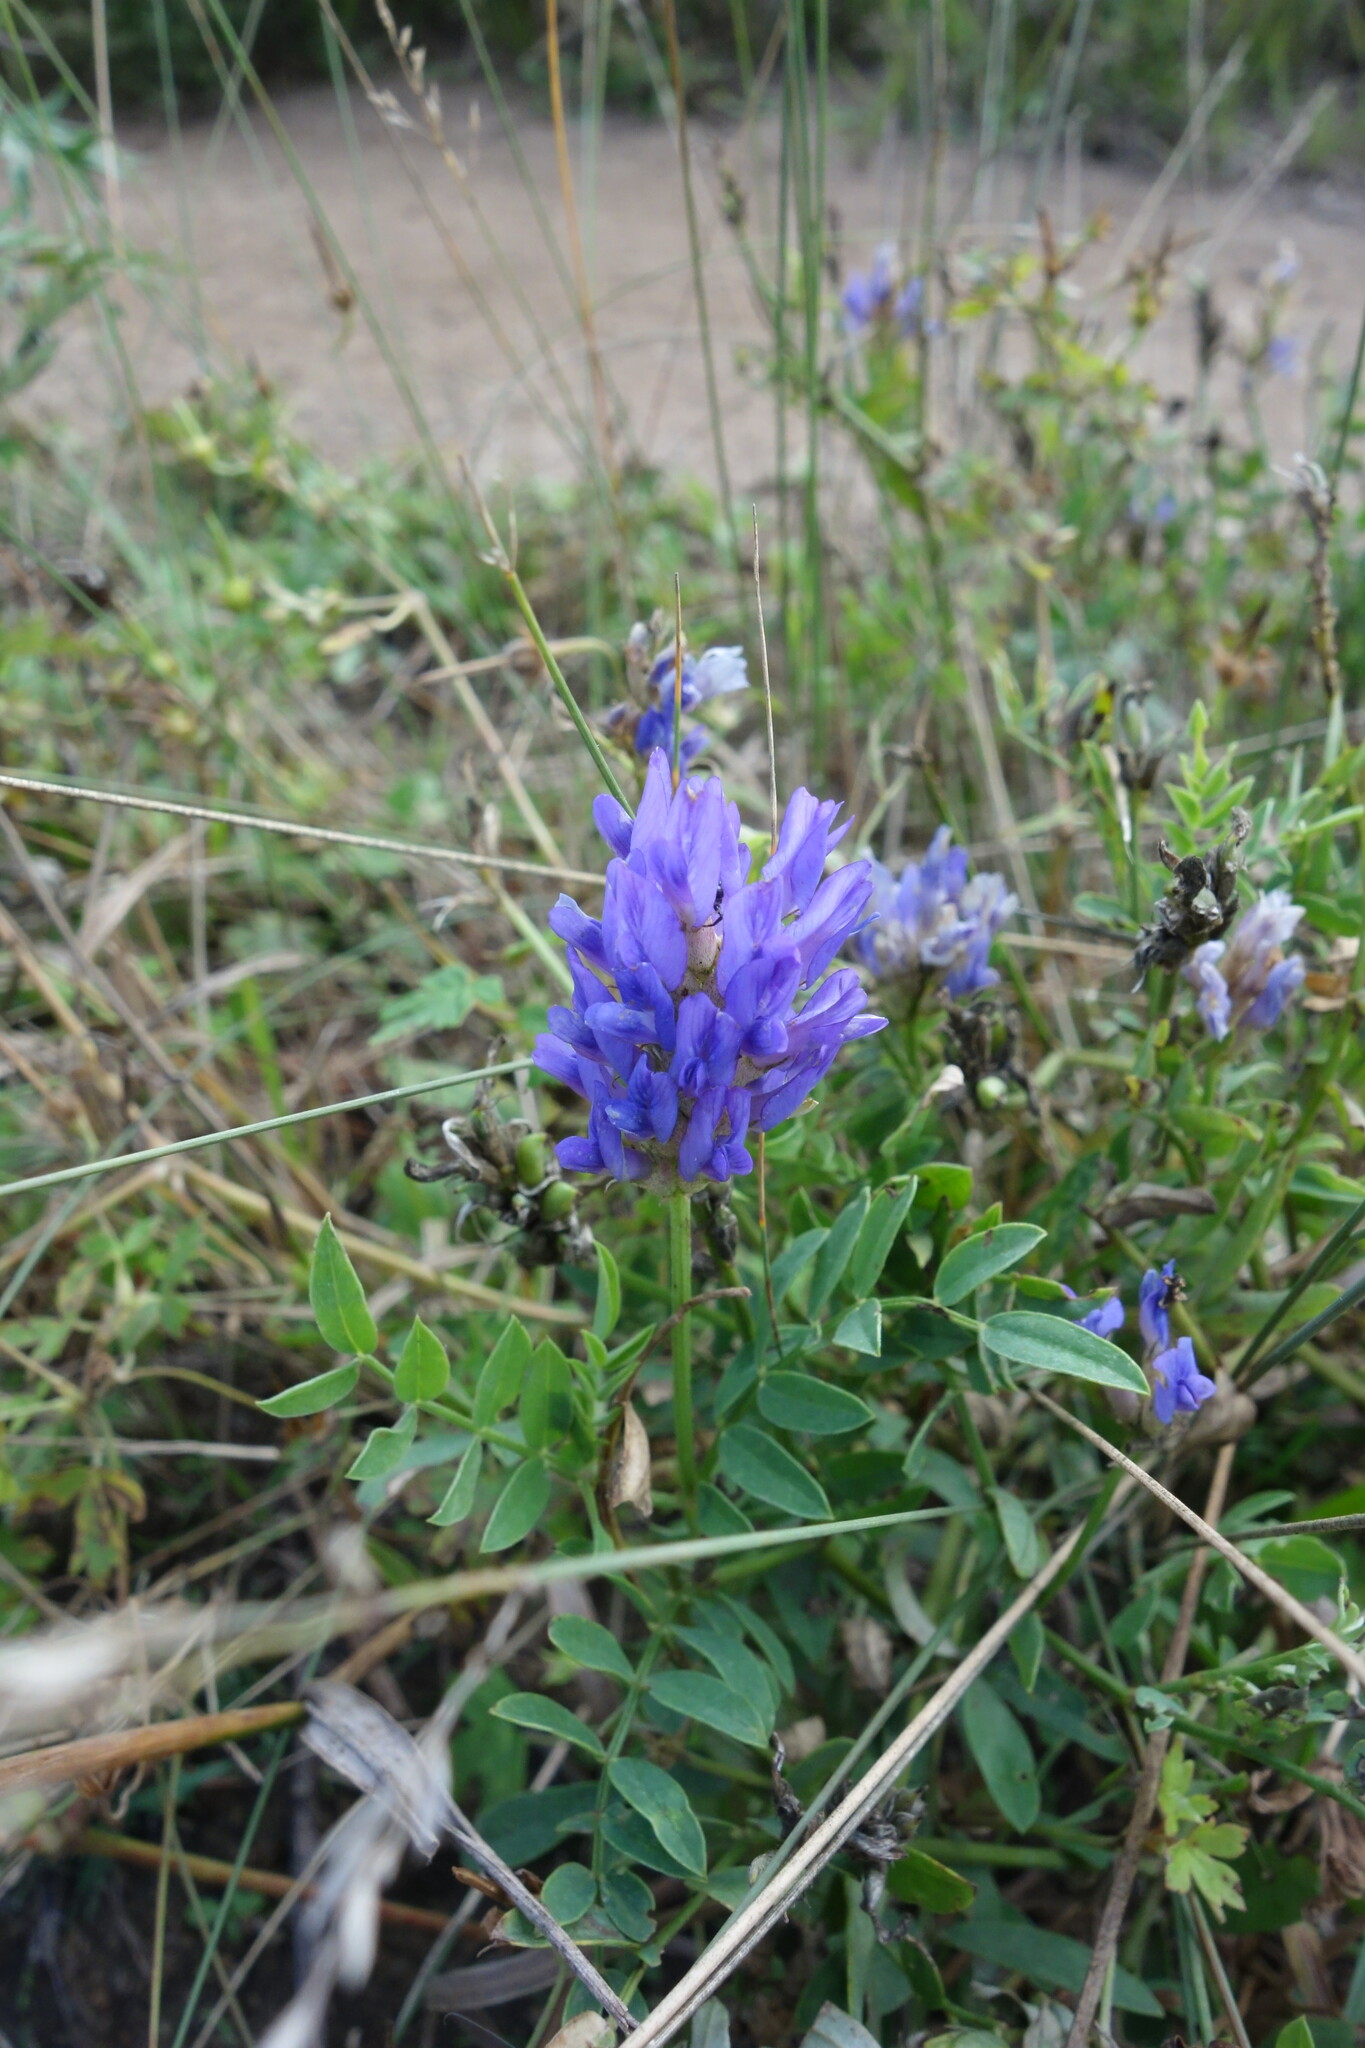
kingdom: Plantae
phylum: Tracheophyta
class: Magnoliopsida
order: Fabales
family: Fabaceae
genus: Astragalus
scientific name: Astragalus laxmannii
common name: Laxmann's milk-vetch
